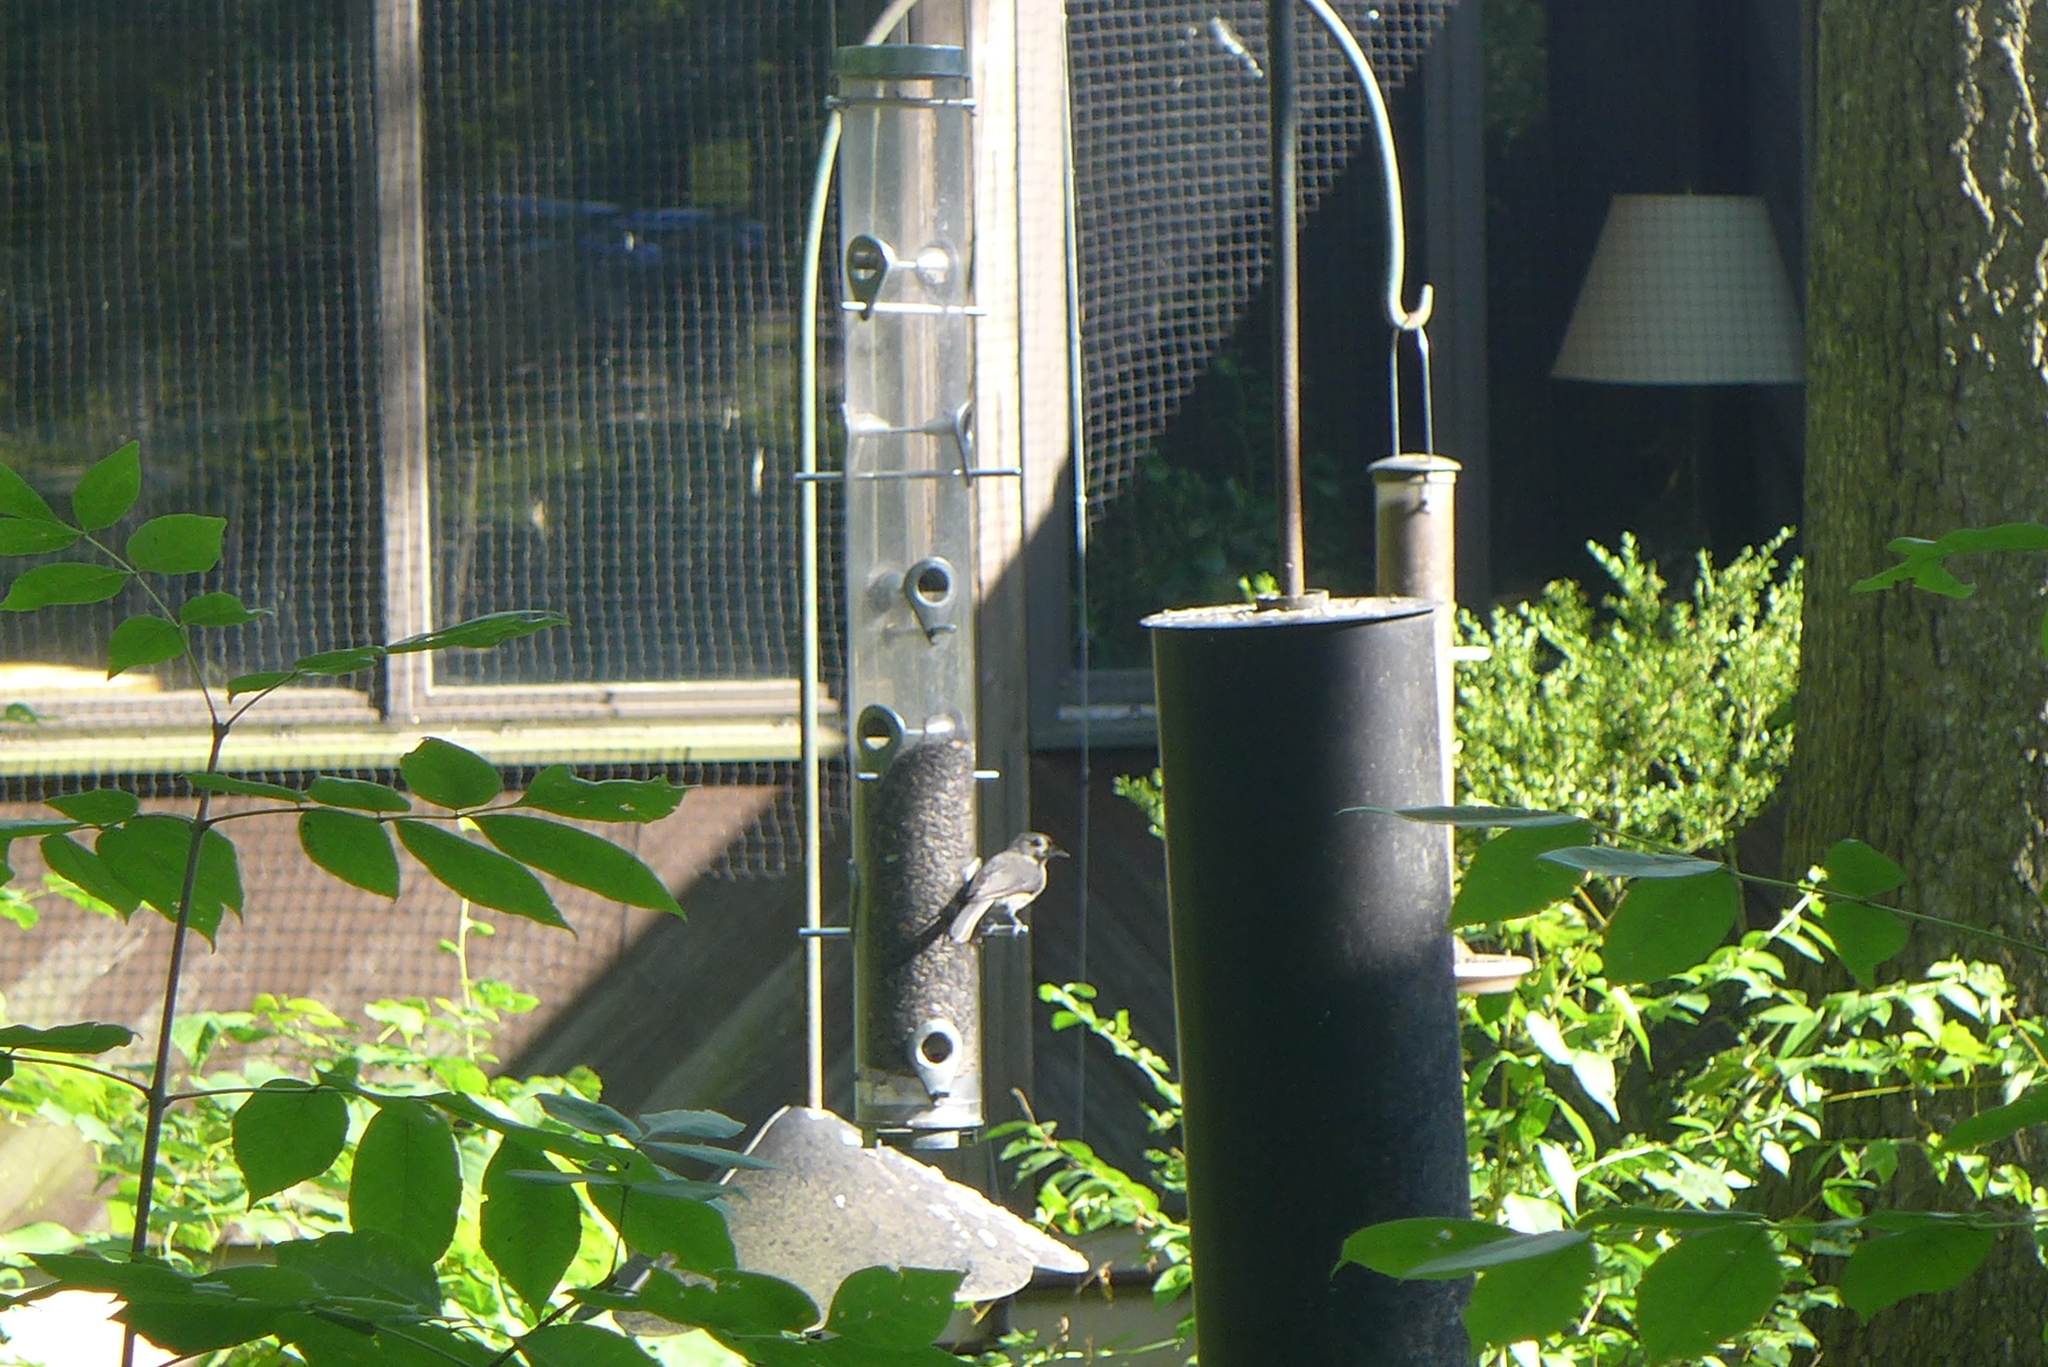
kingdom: Animalia
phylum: Chordata
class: Aves
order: Passeriformes
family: Paridae
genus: Baeolophus
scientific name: Baeolophus bicolor
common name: Tufted titmouse
